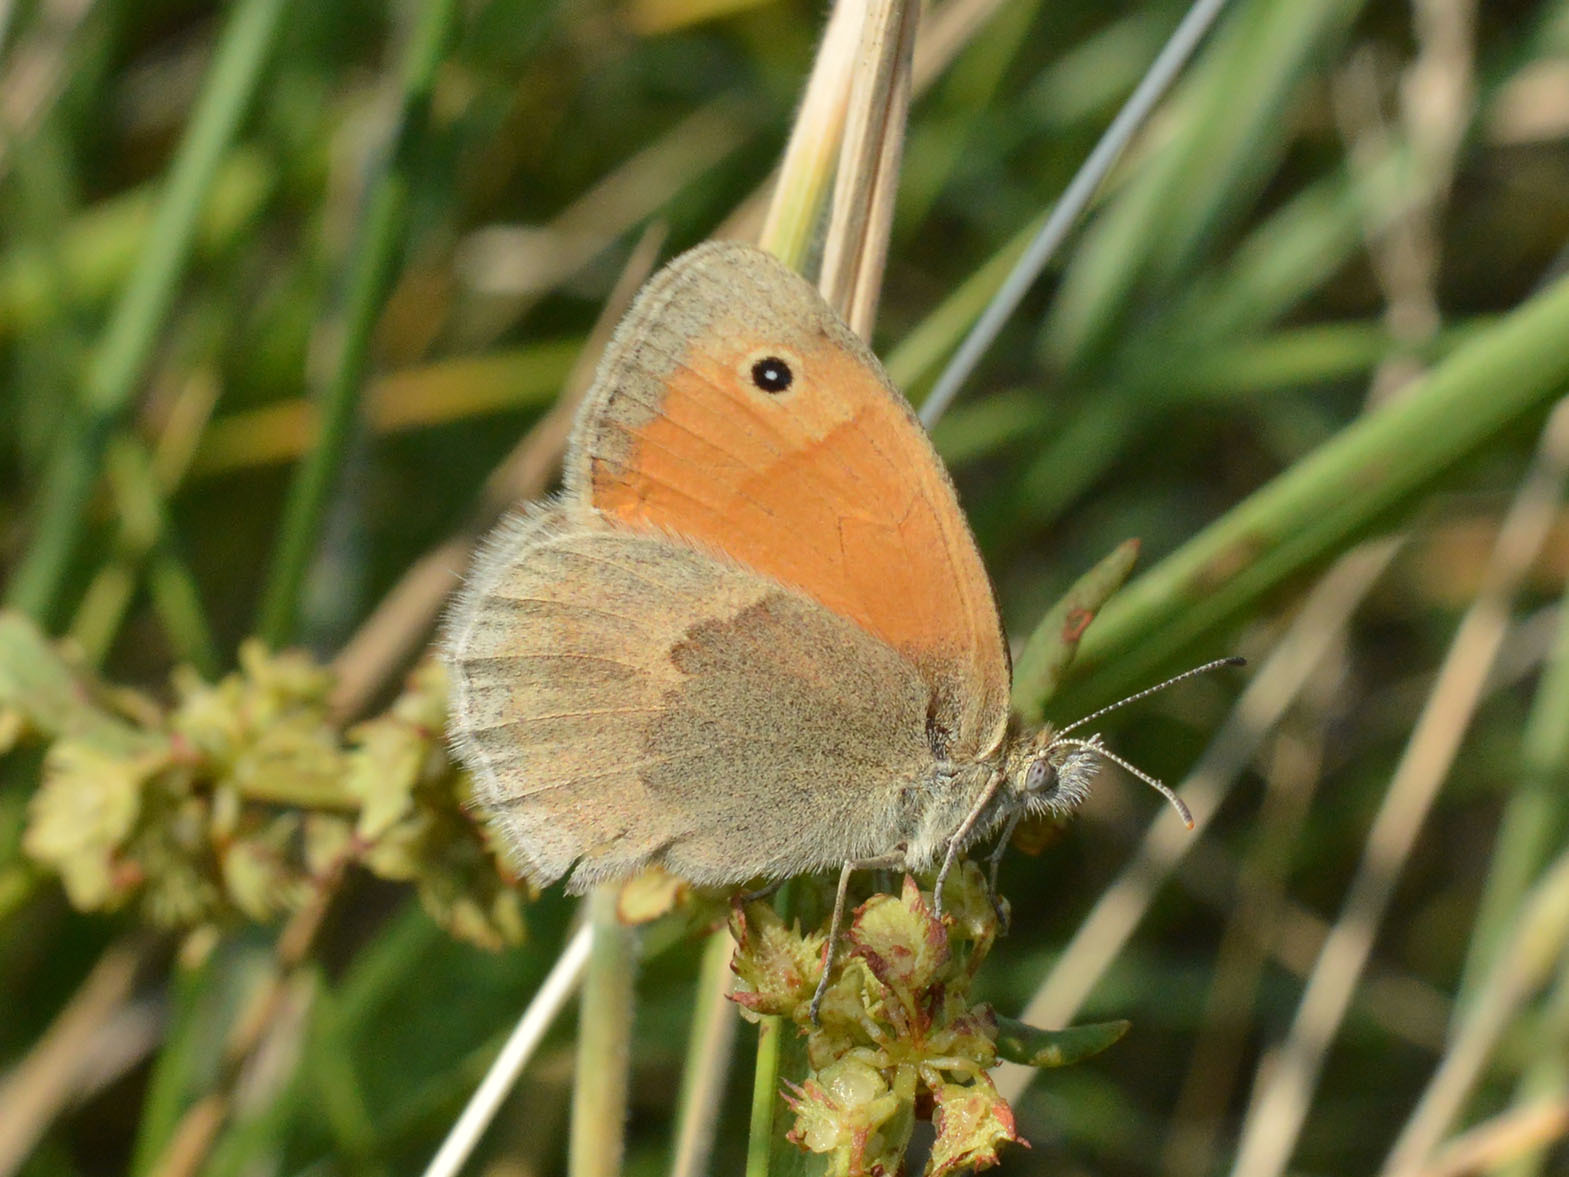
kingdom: Animalia
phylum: Arthropoda
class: Insecta
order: Lepidoptera
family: Nymphalidae
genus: Coenonympha
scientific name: Coenonympha pamphilus
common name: Small heath
